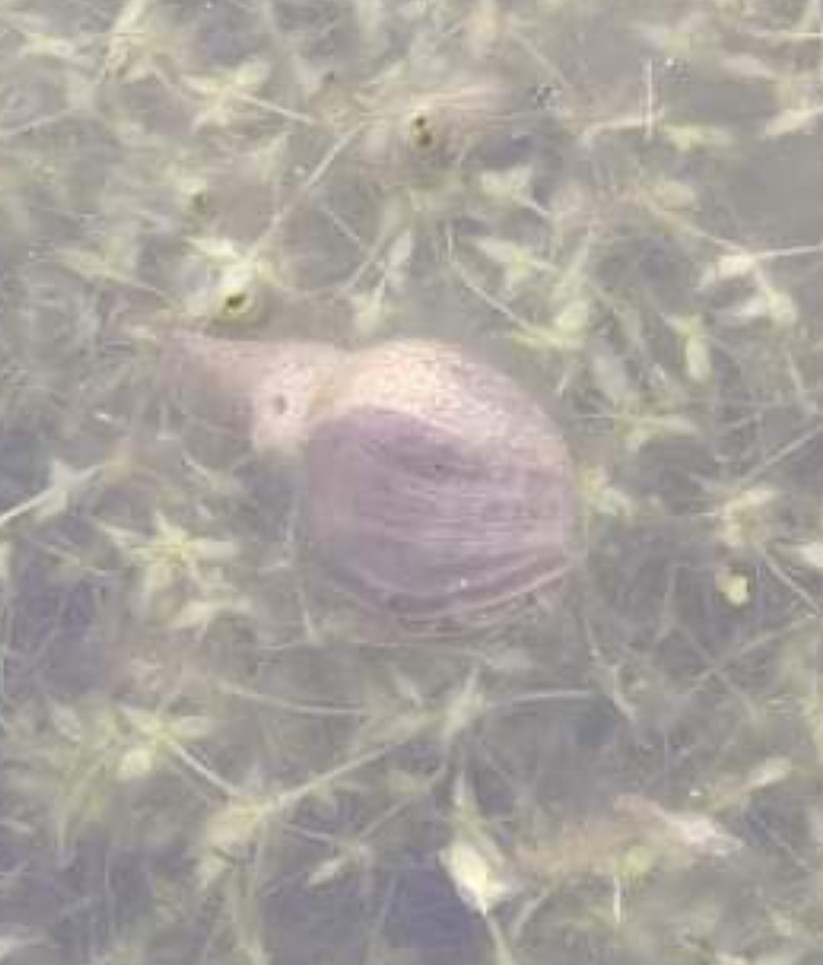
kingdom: Animalia
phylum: Mollusca
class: Gastropoda
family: Lymnaeidae
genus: Lymnaea
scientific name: Lymnaea stagnalis
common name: Great pond snail
